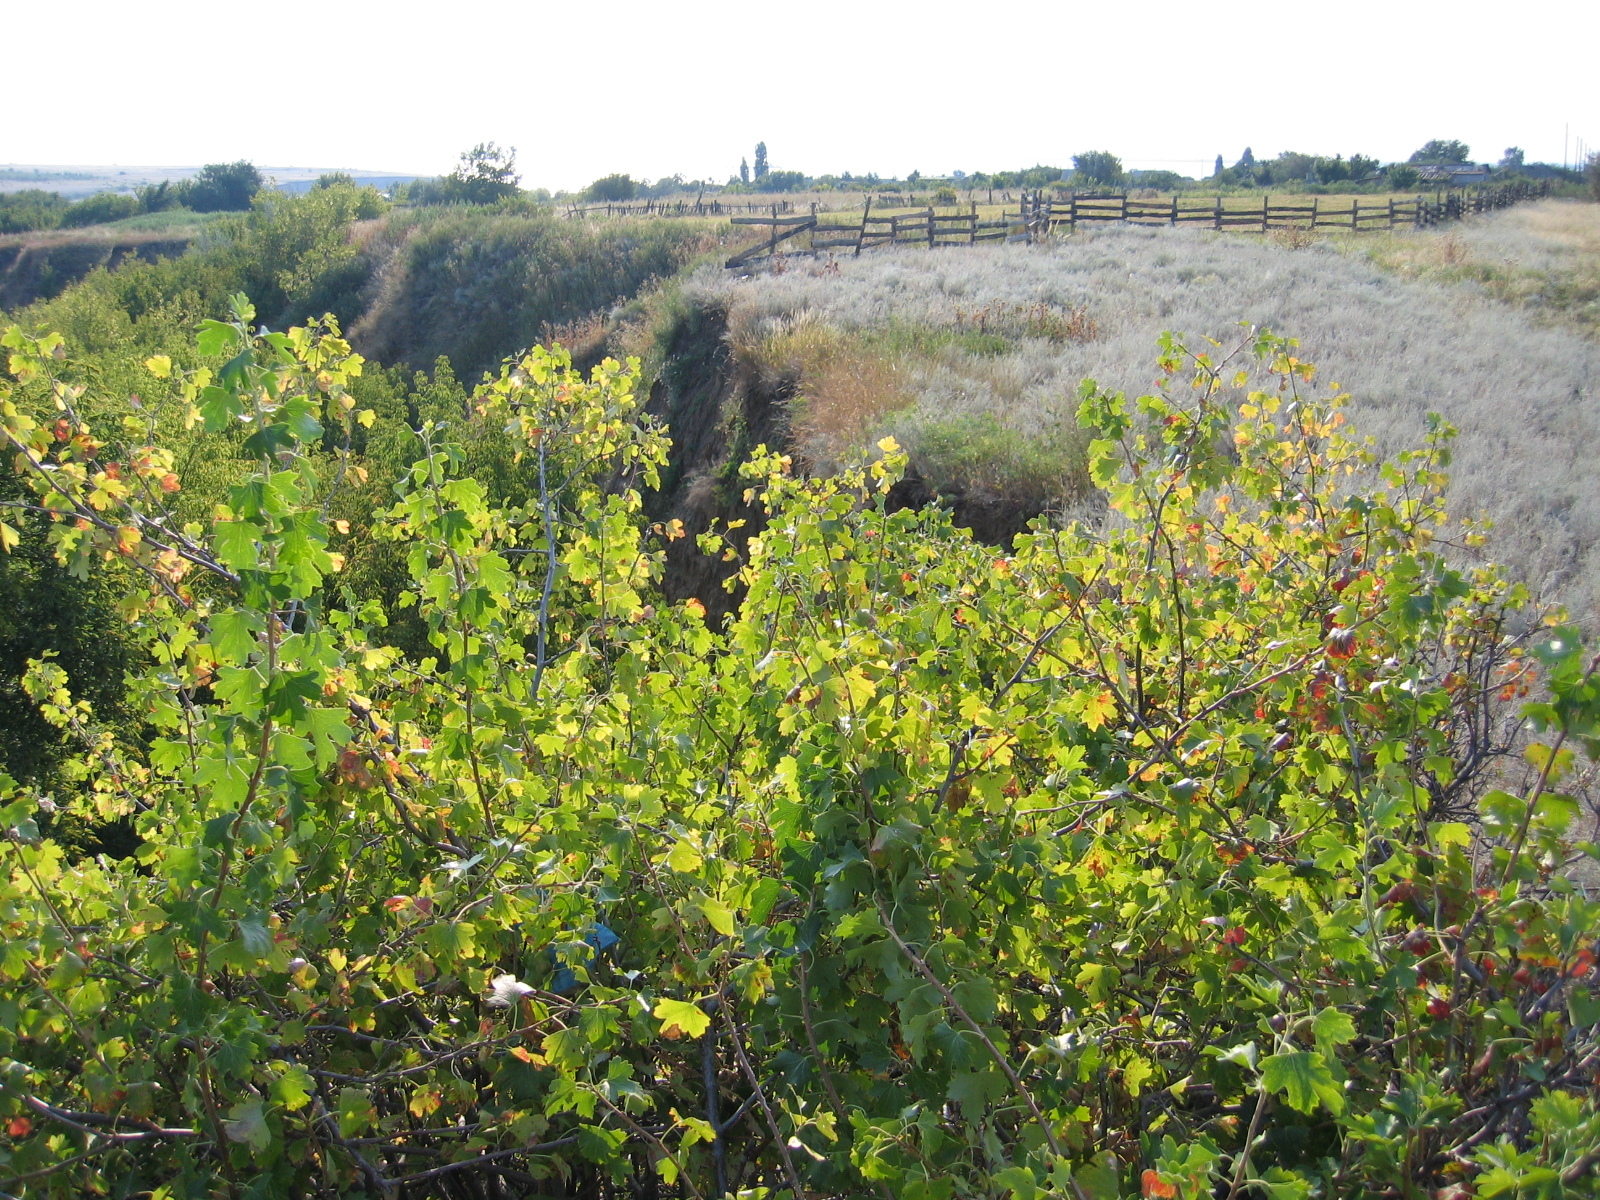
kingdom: Plantae
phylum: Tracheophyta
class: Magnoliopsida
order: Saxifragales
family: Grossulariaceae
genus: Ribes
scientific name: Ribes aureum
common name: Golden currant
